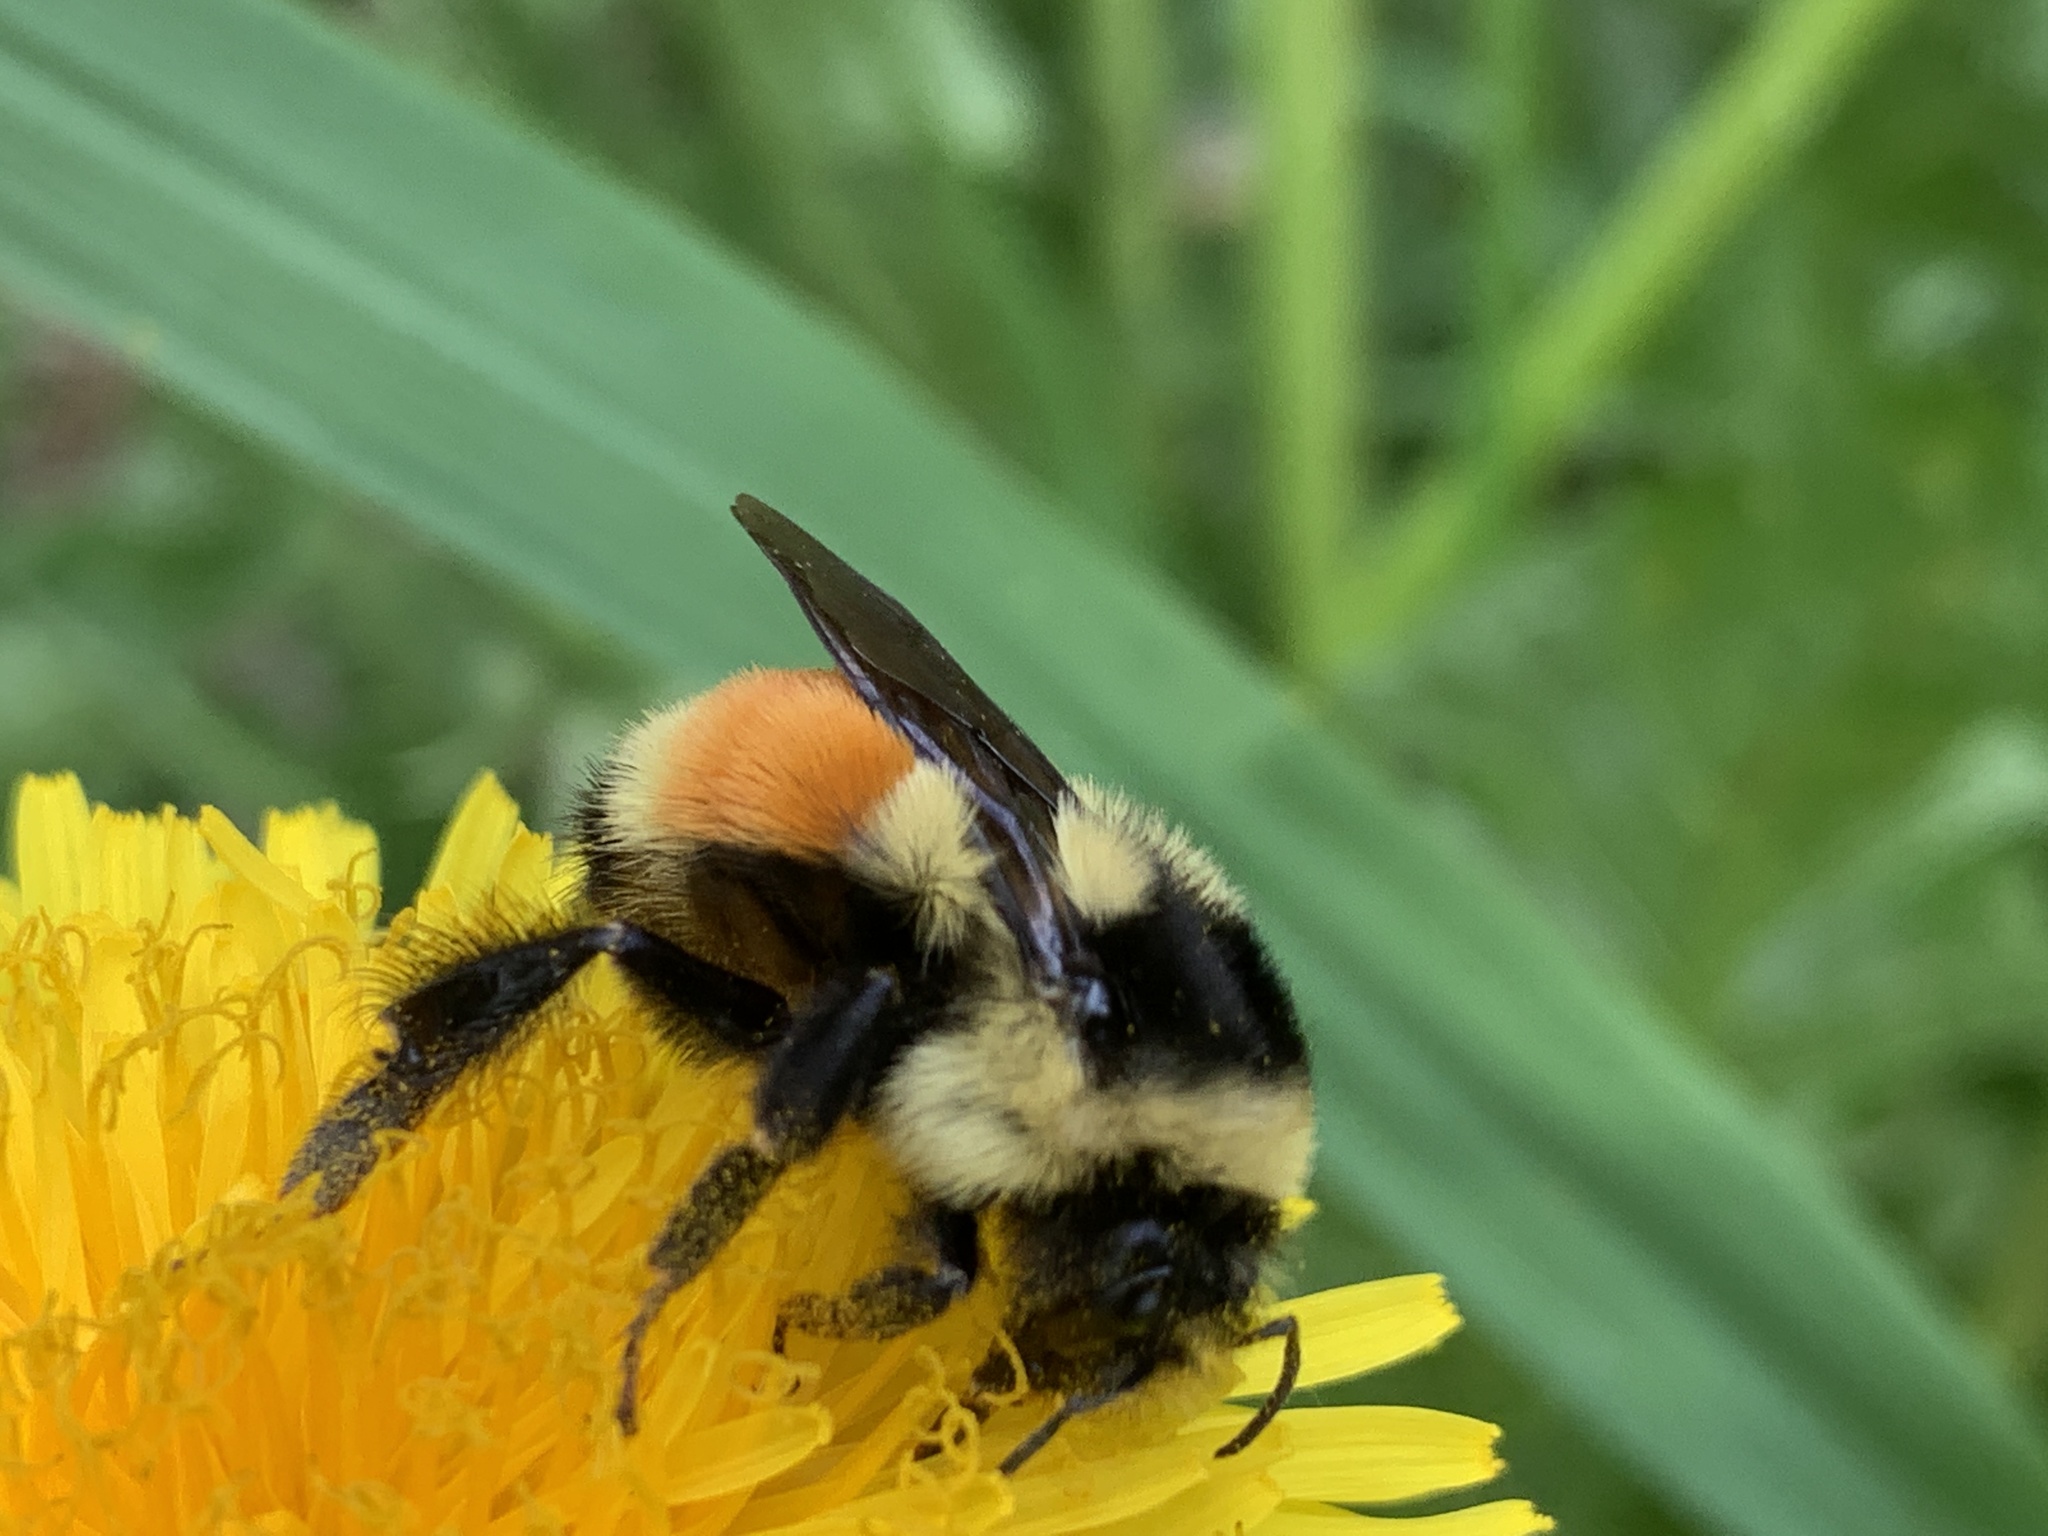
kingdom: Animalia
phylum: Arthropoda
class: Insecta
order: Hymenoptera
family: Apidae
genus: Bombus
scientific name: Bombus ternarius
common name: Tri-colored bumble bee
